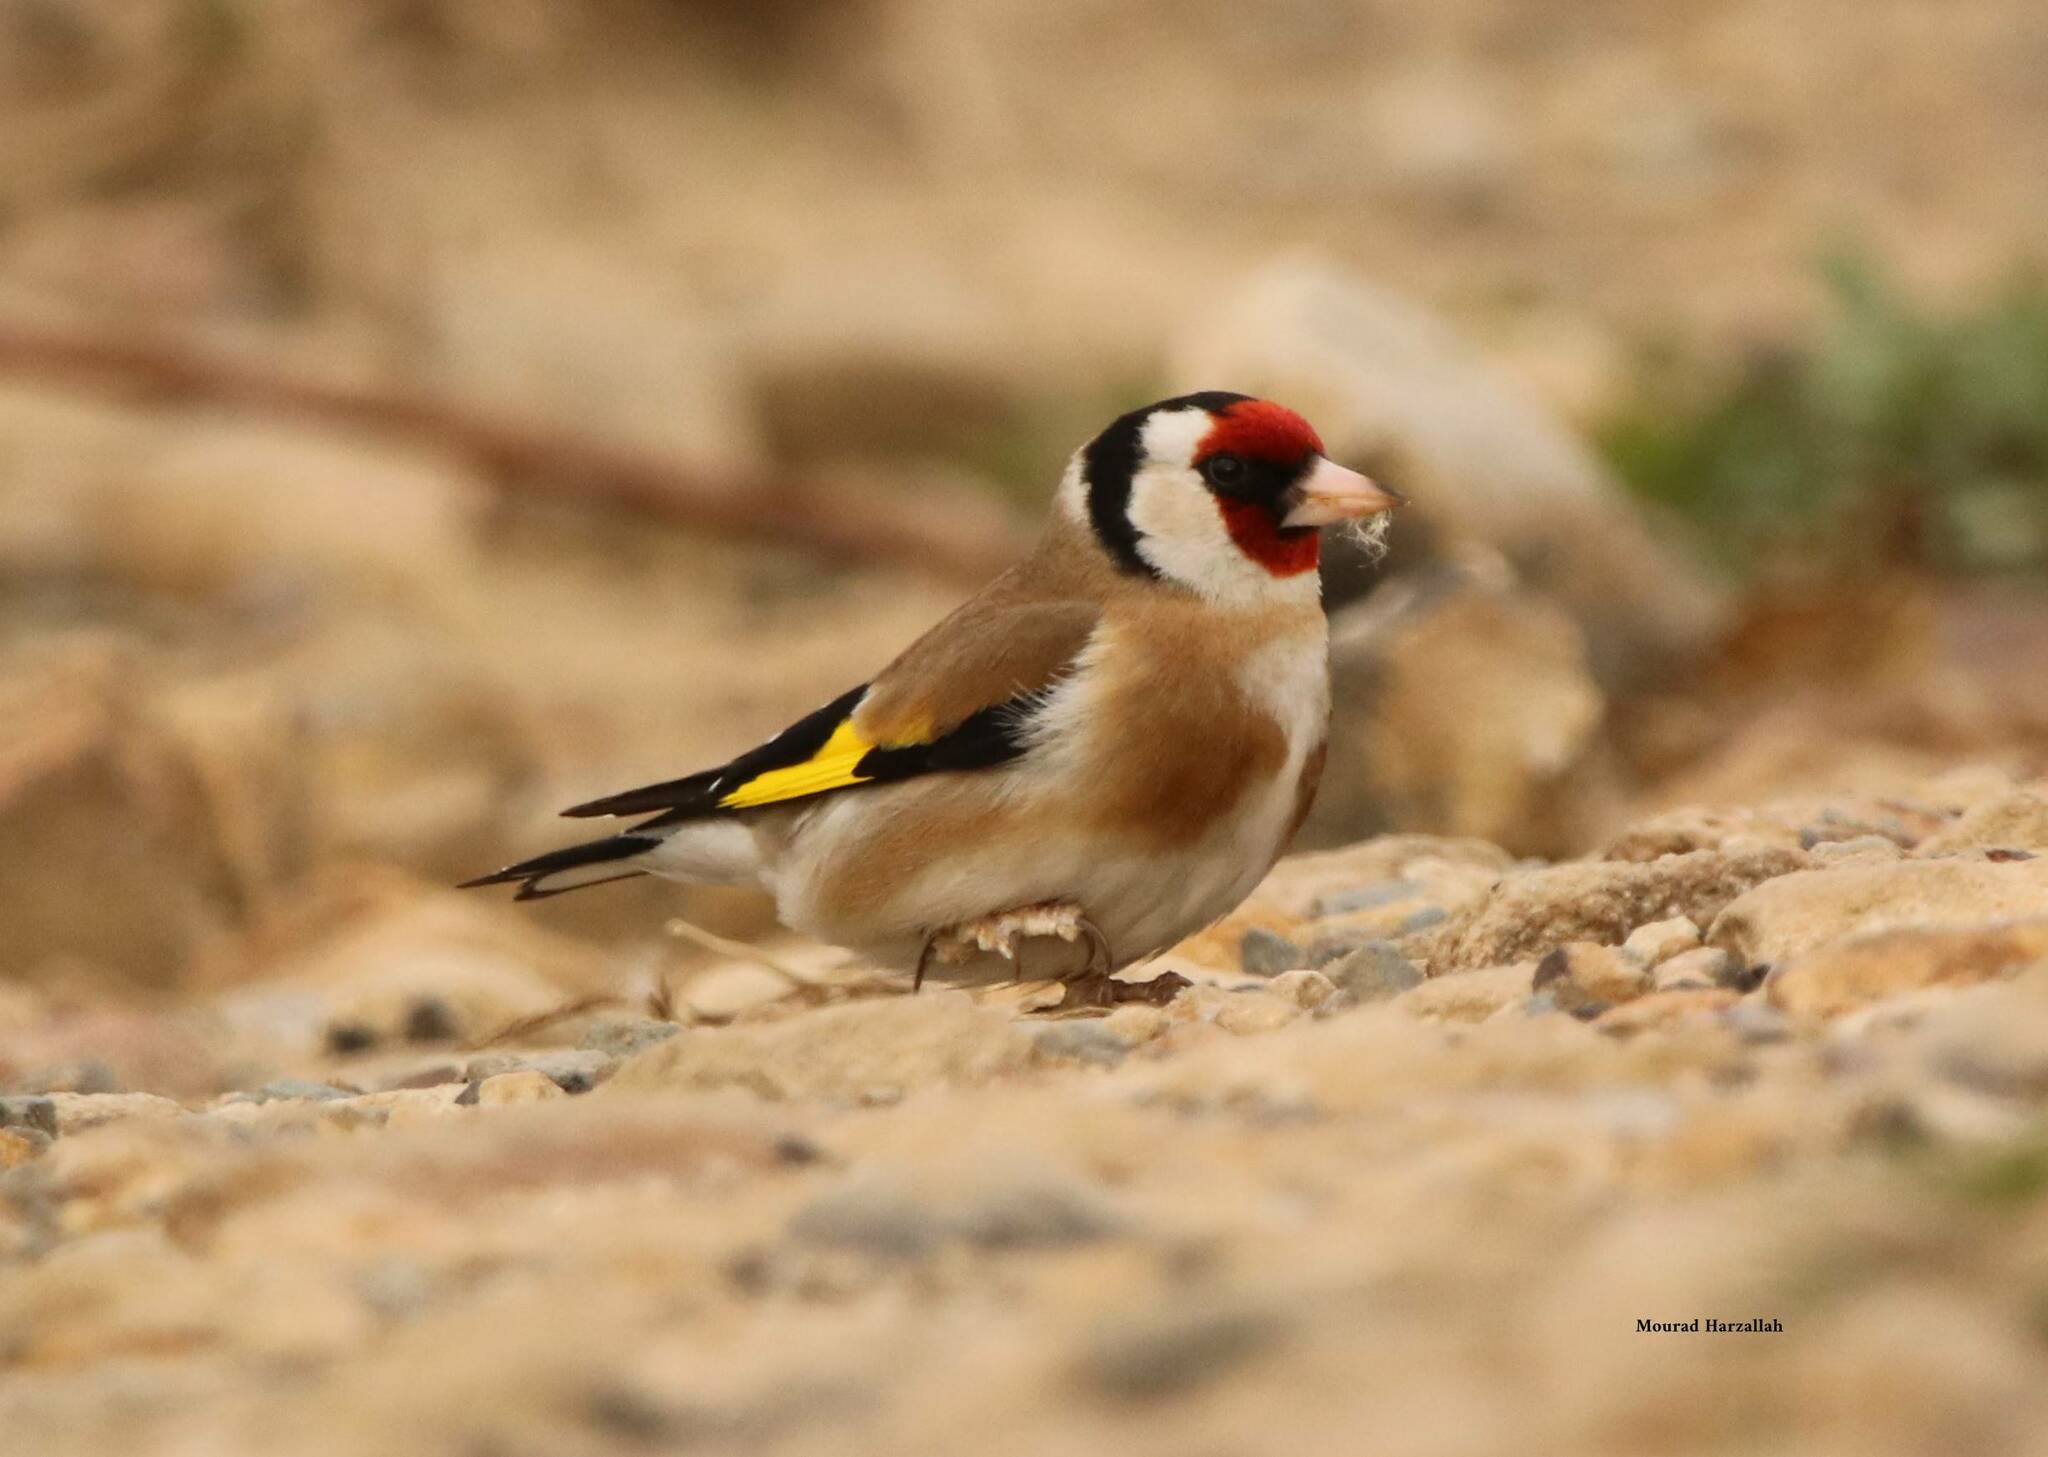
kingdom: Animalia
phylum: Chordata
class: Aves
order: Passeriformes
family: Fringillidae
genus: Carduelis
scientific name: Carduelis carduelis
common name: European goldfinch
